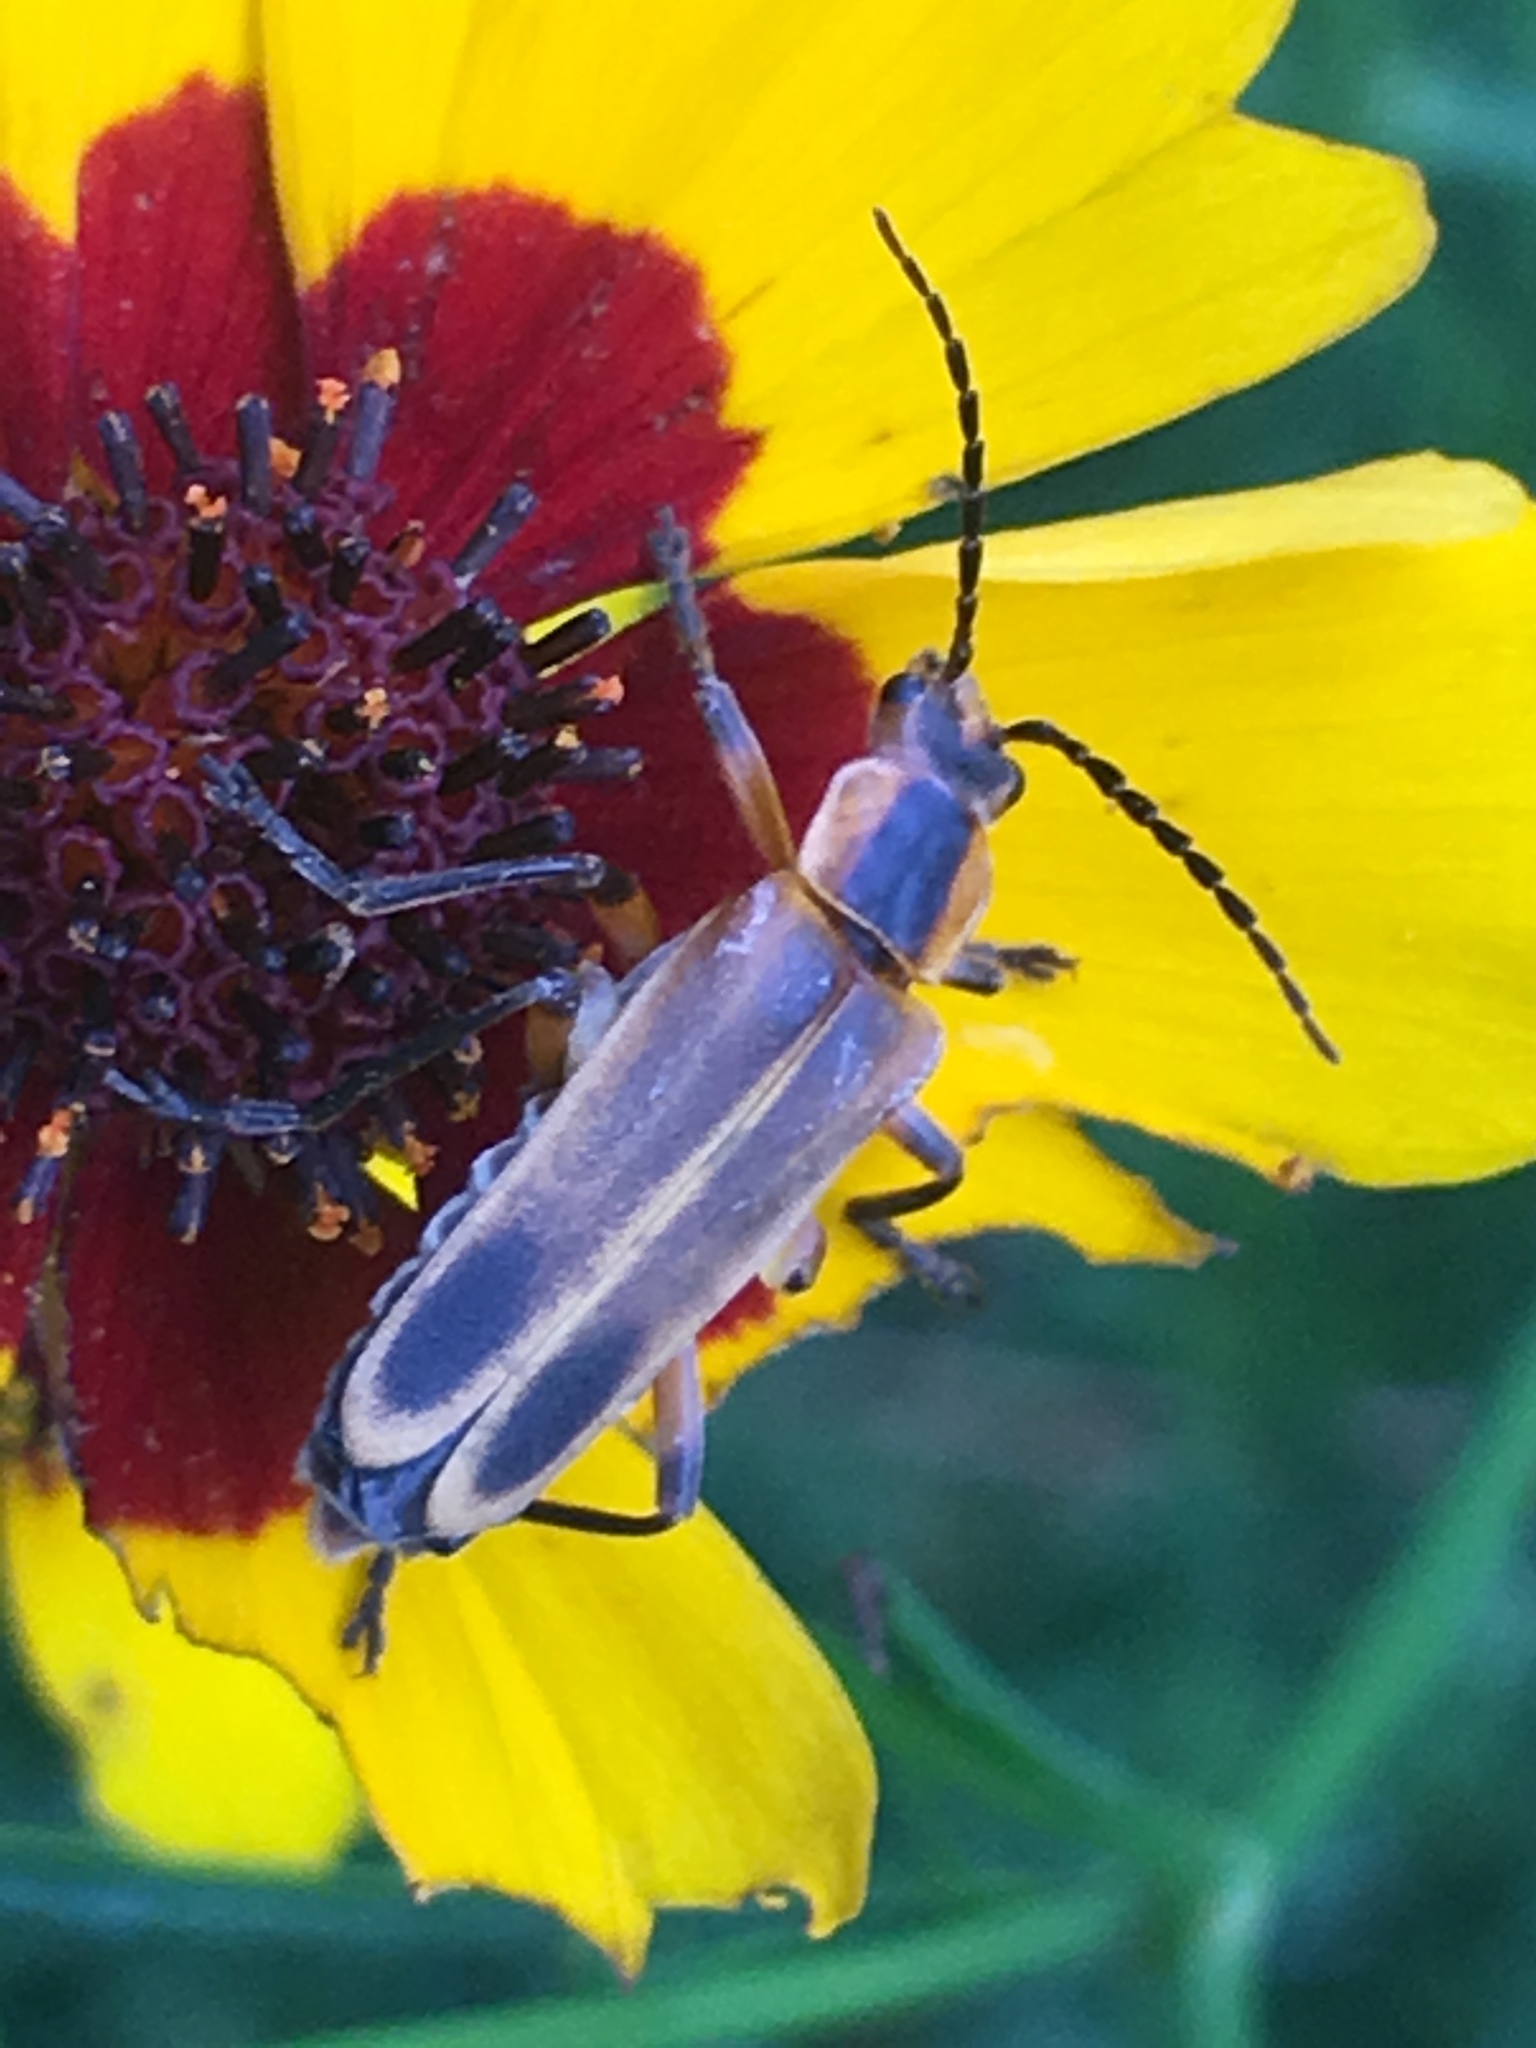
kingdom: Animalia
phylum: Arthropoda
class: Insecta
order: Coleoptera
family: Cantharidae
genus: Chauliognathus
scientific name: Chauliognathus marginatus
